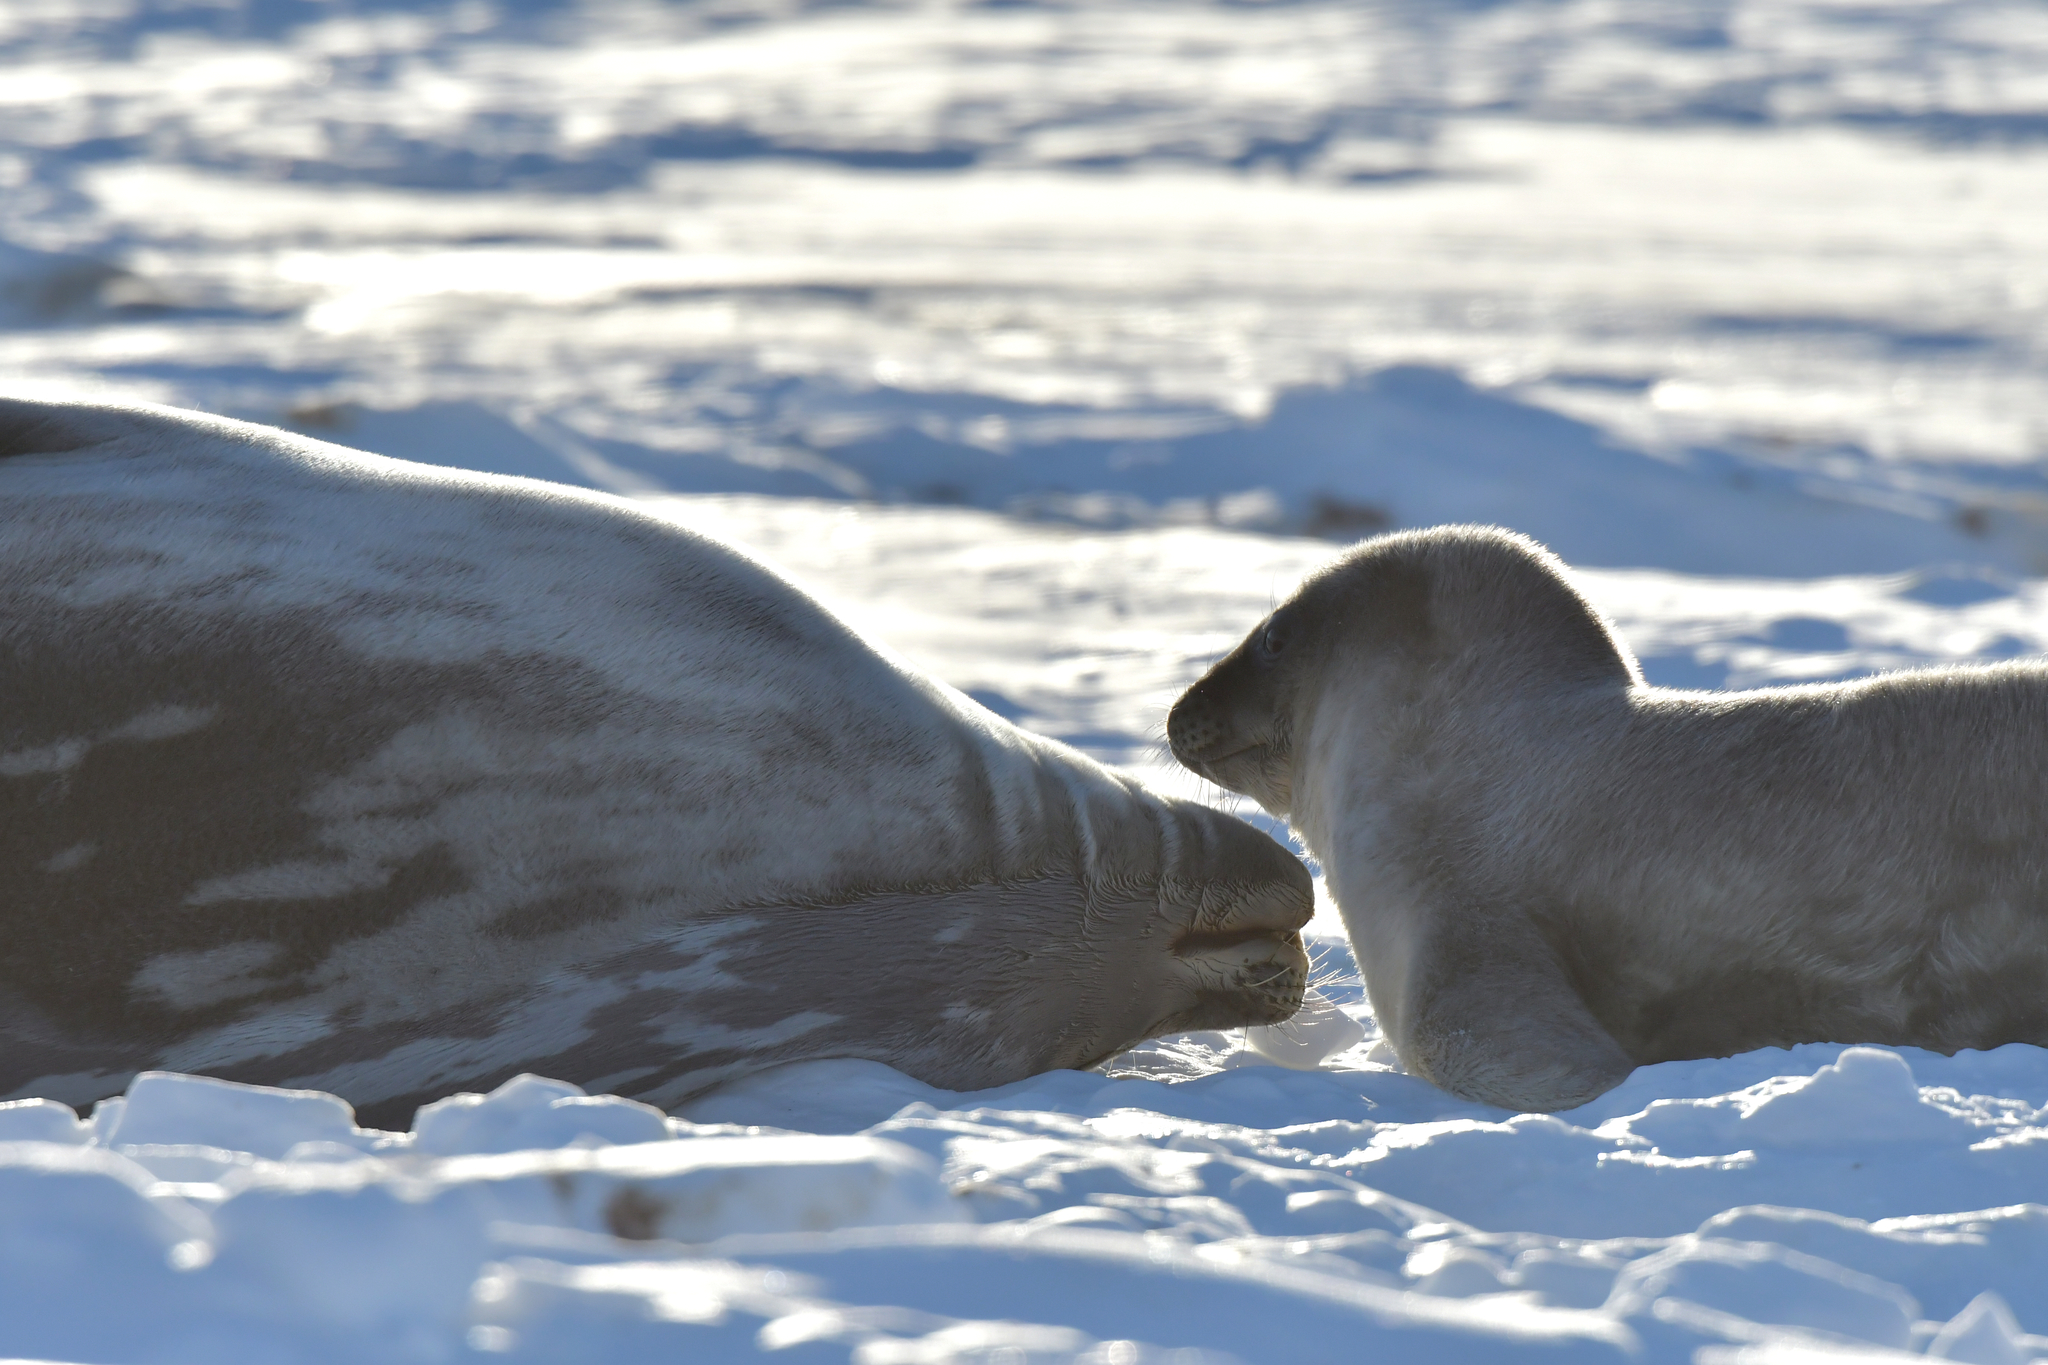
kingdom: Animalia
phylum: Chordata
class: Mammalia
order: Carnivora
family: Phocidae
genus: Leptonychotes
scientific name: Leptonychotes weddellii
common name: Weddell seal
